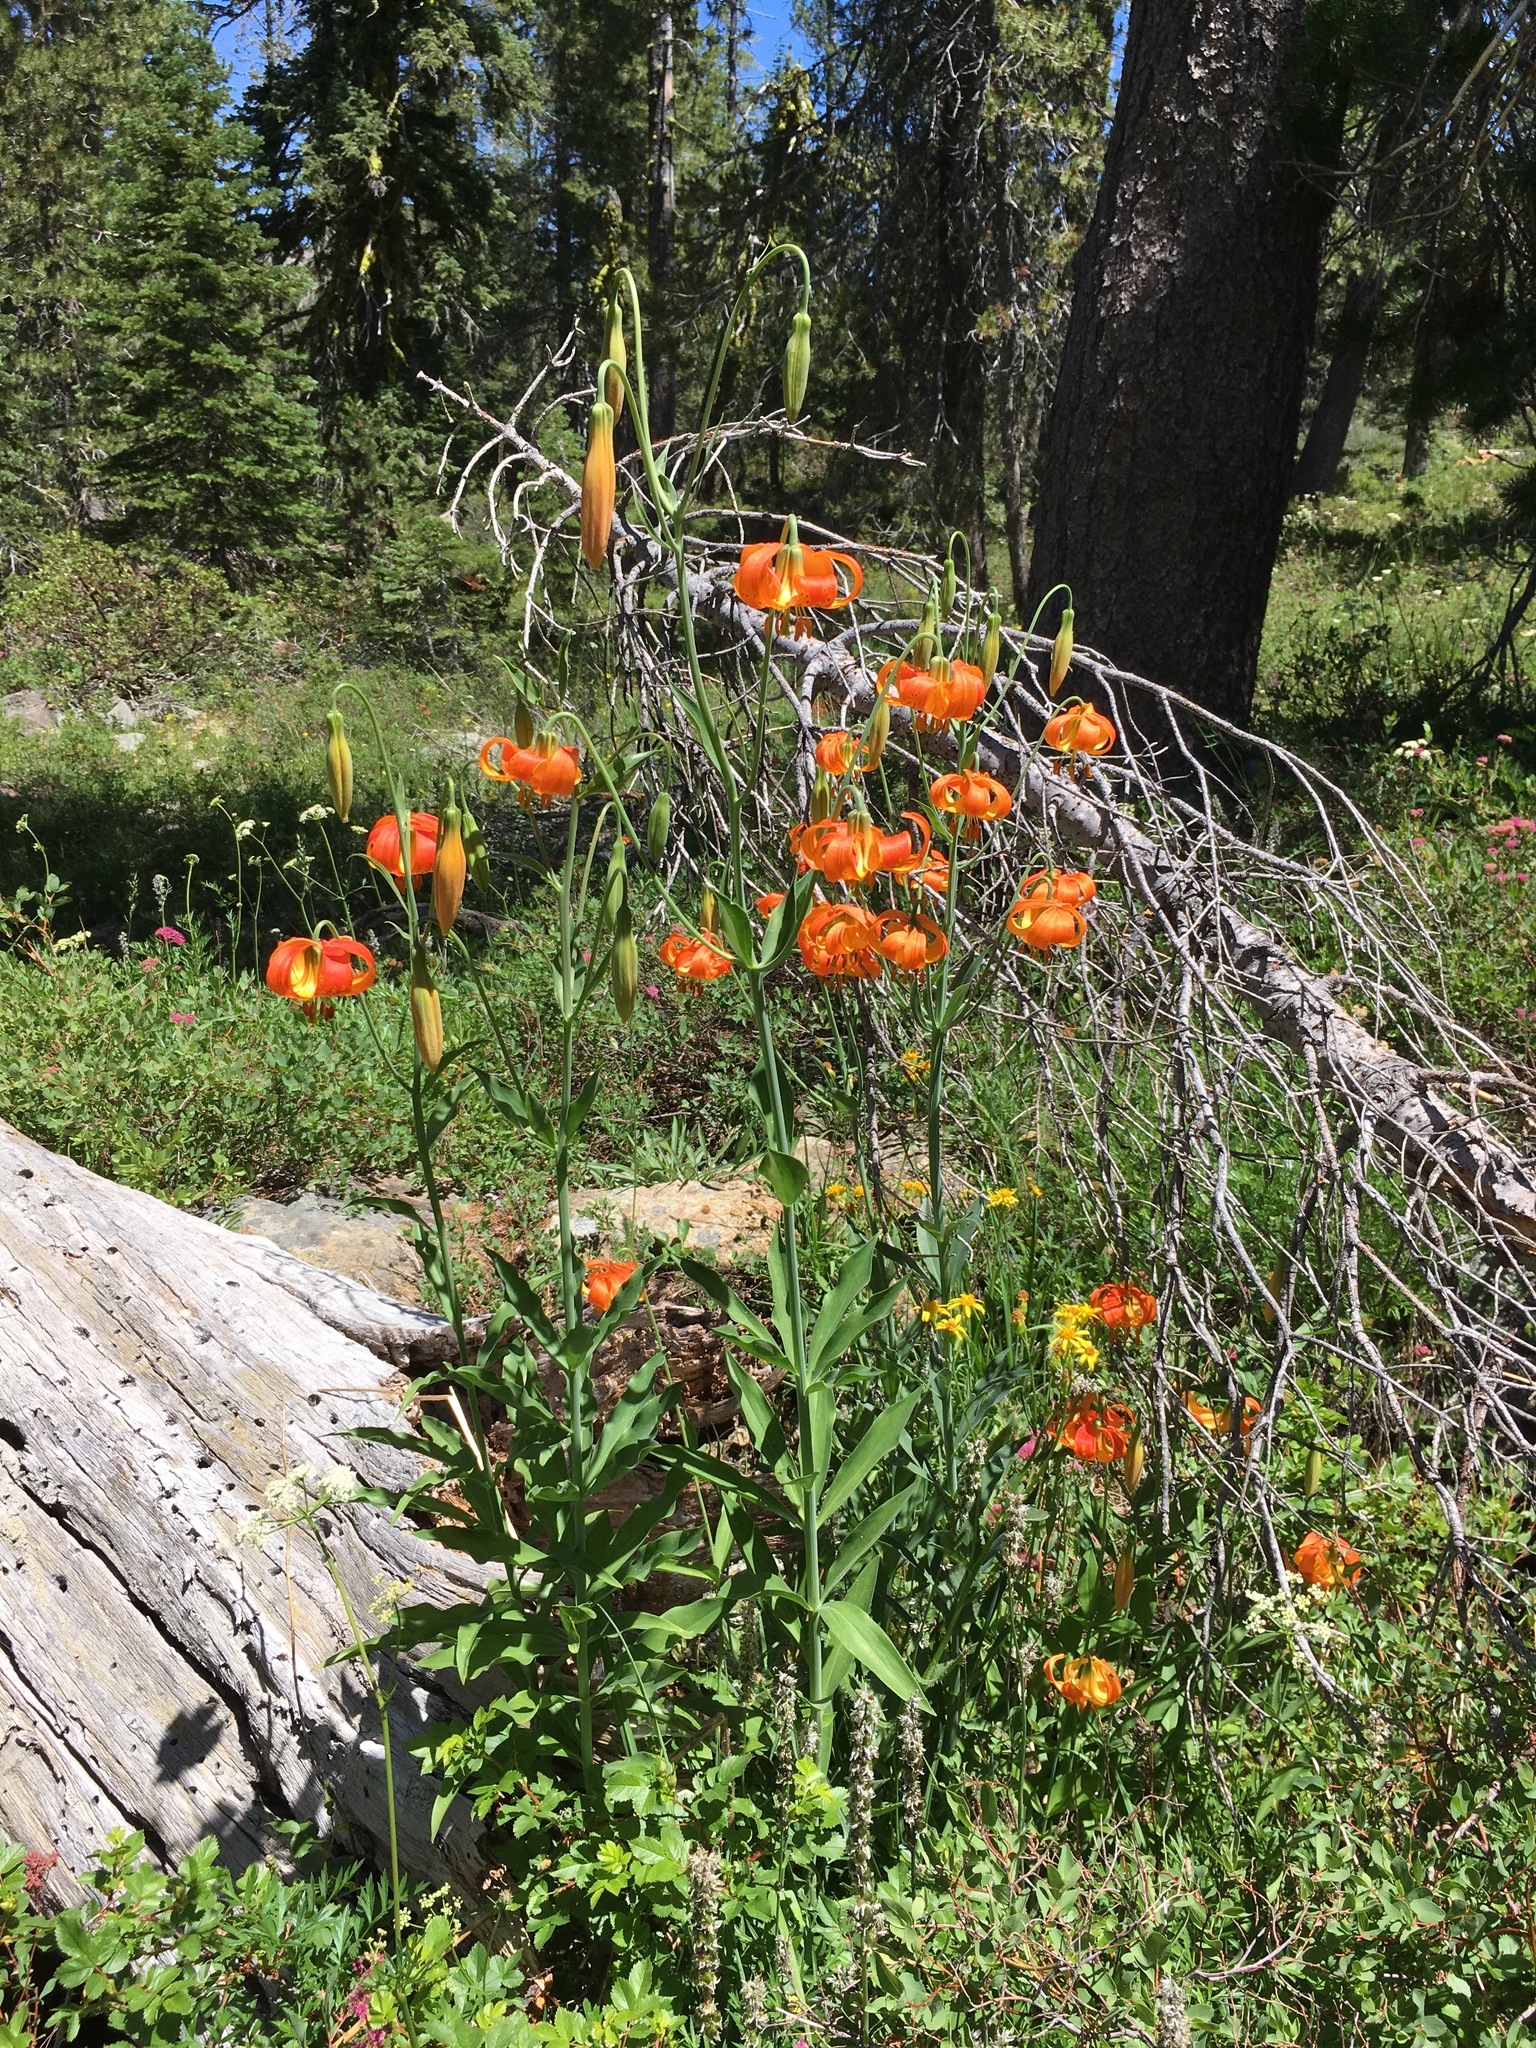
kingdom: Plantae
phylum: Tracheophyta
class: Liliopsida
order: Liliales
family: Liliaceae
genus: Lilium
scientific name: Lilium pardalinum
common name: Panther lily
